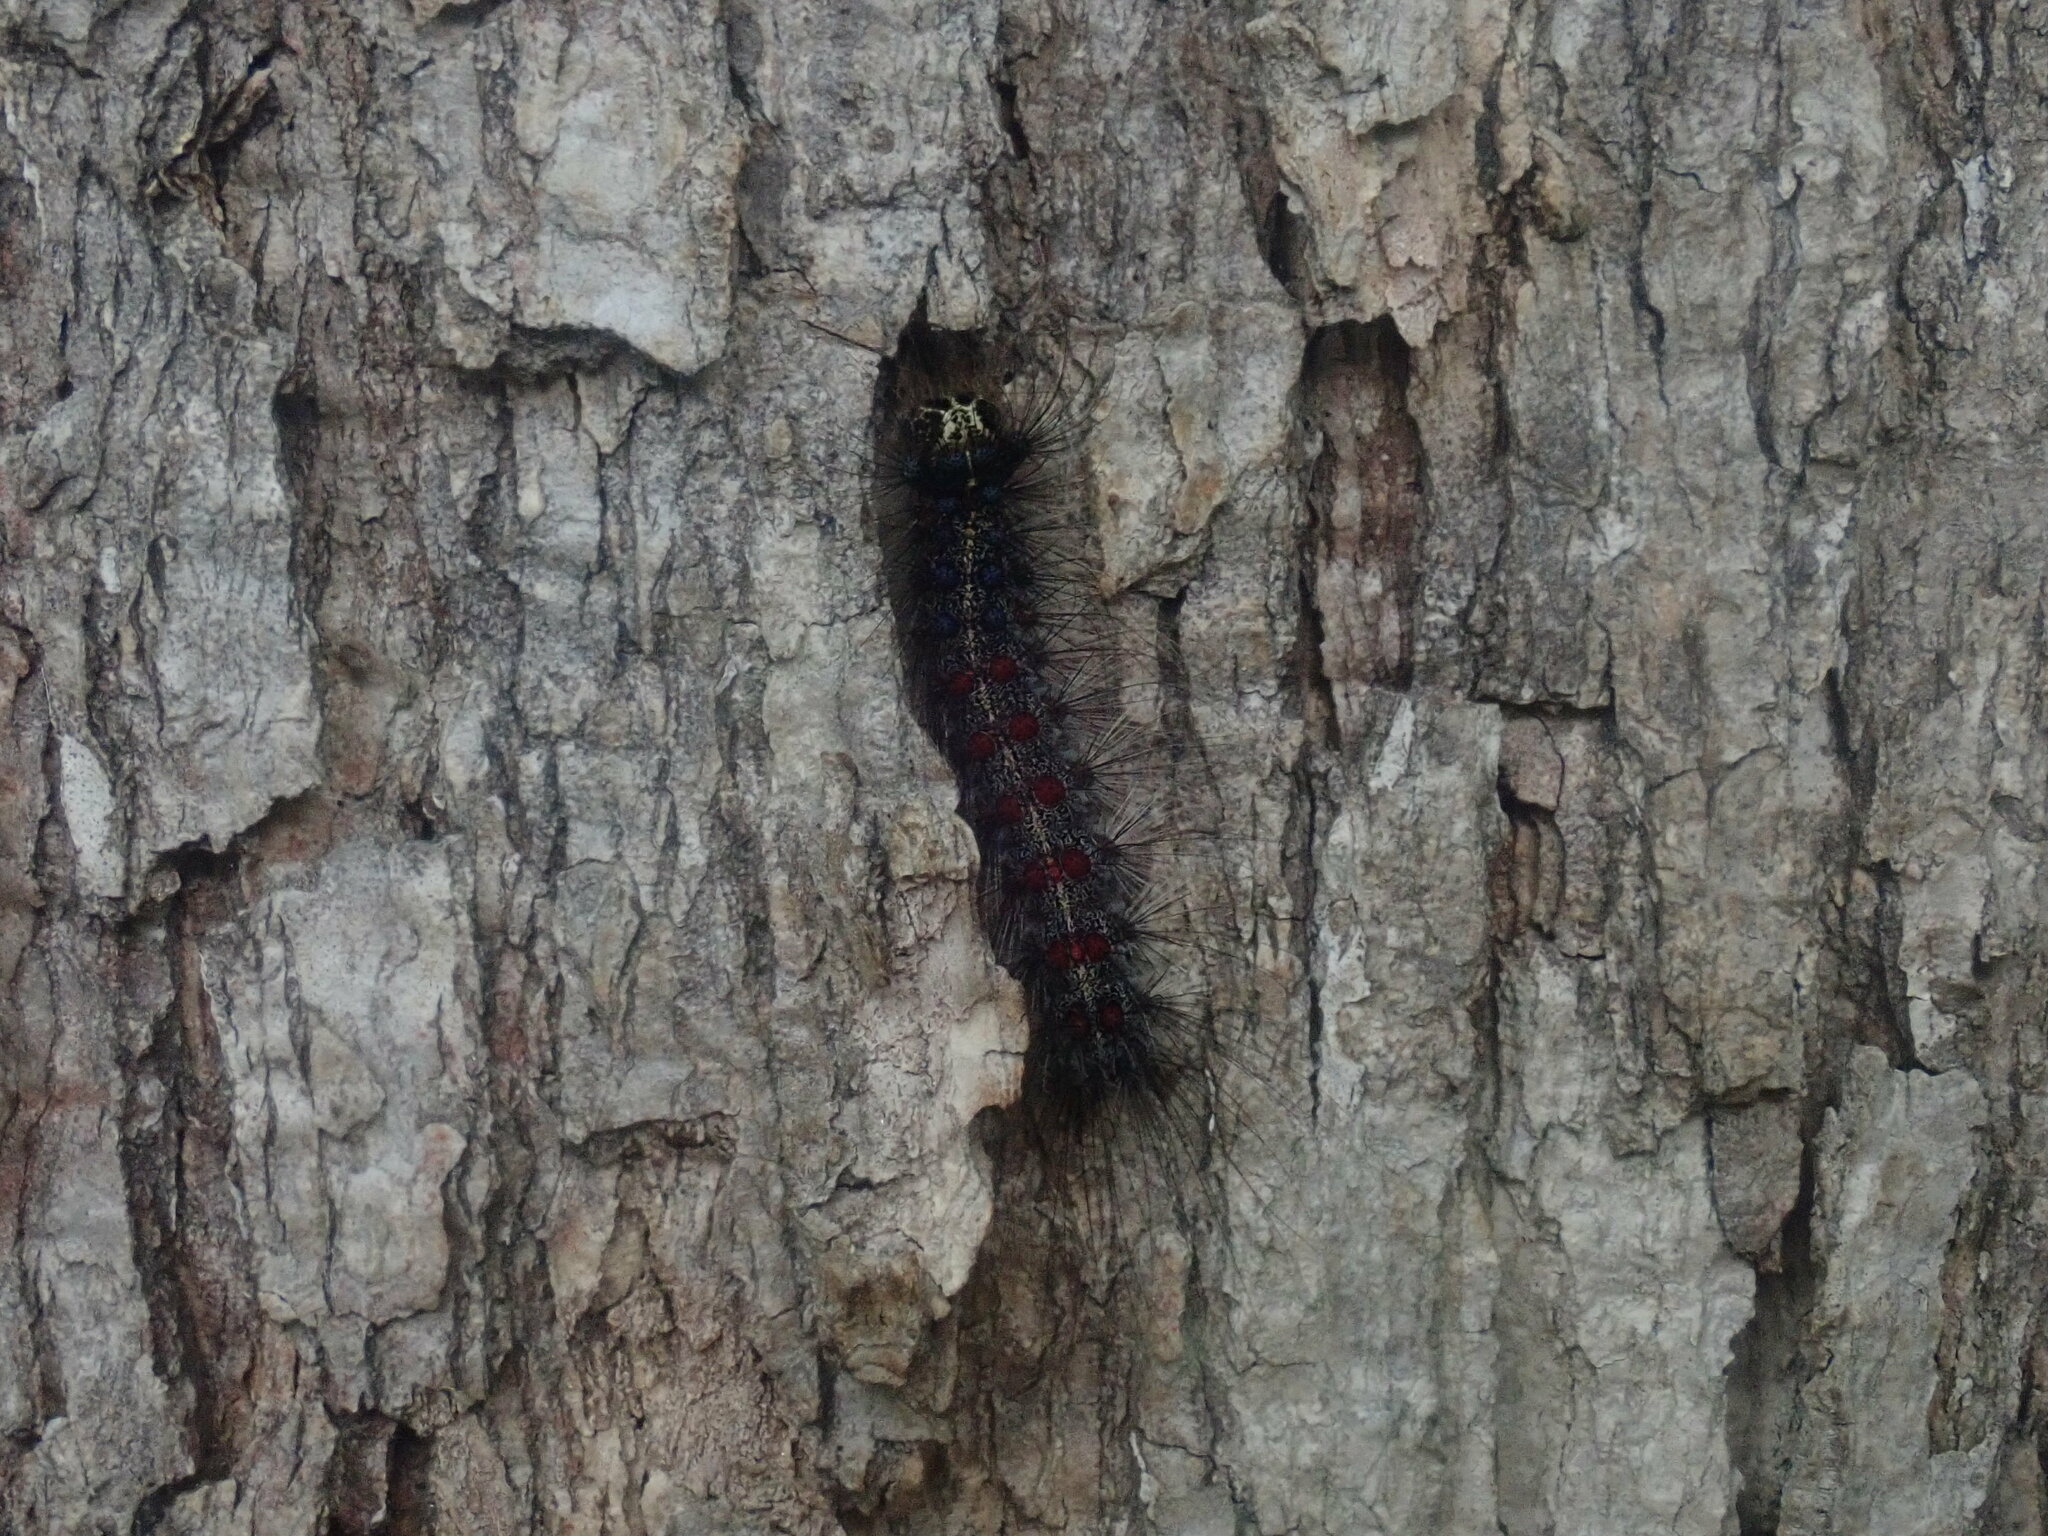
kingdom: Animalia
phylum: Arthropoda
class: Insecta
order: Lepidoptera
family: Erebidae
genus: Lymantria
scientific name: Lymantria dispar
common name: Gypsy moth
